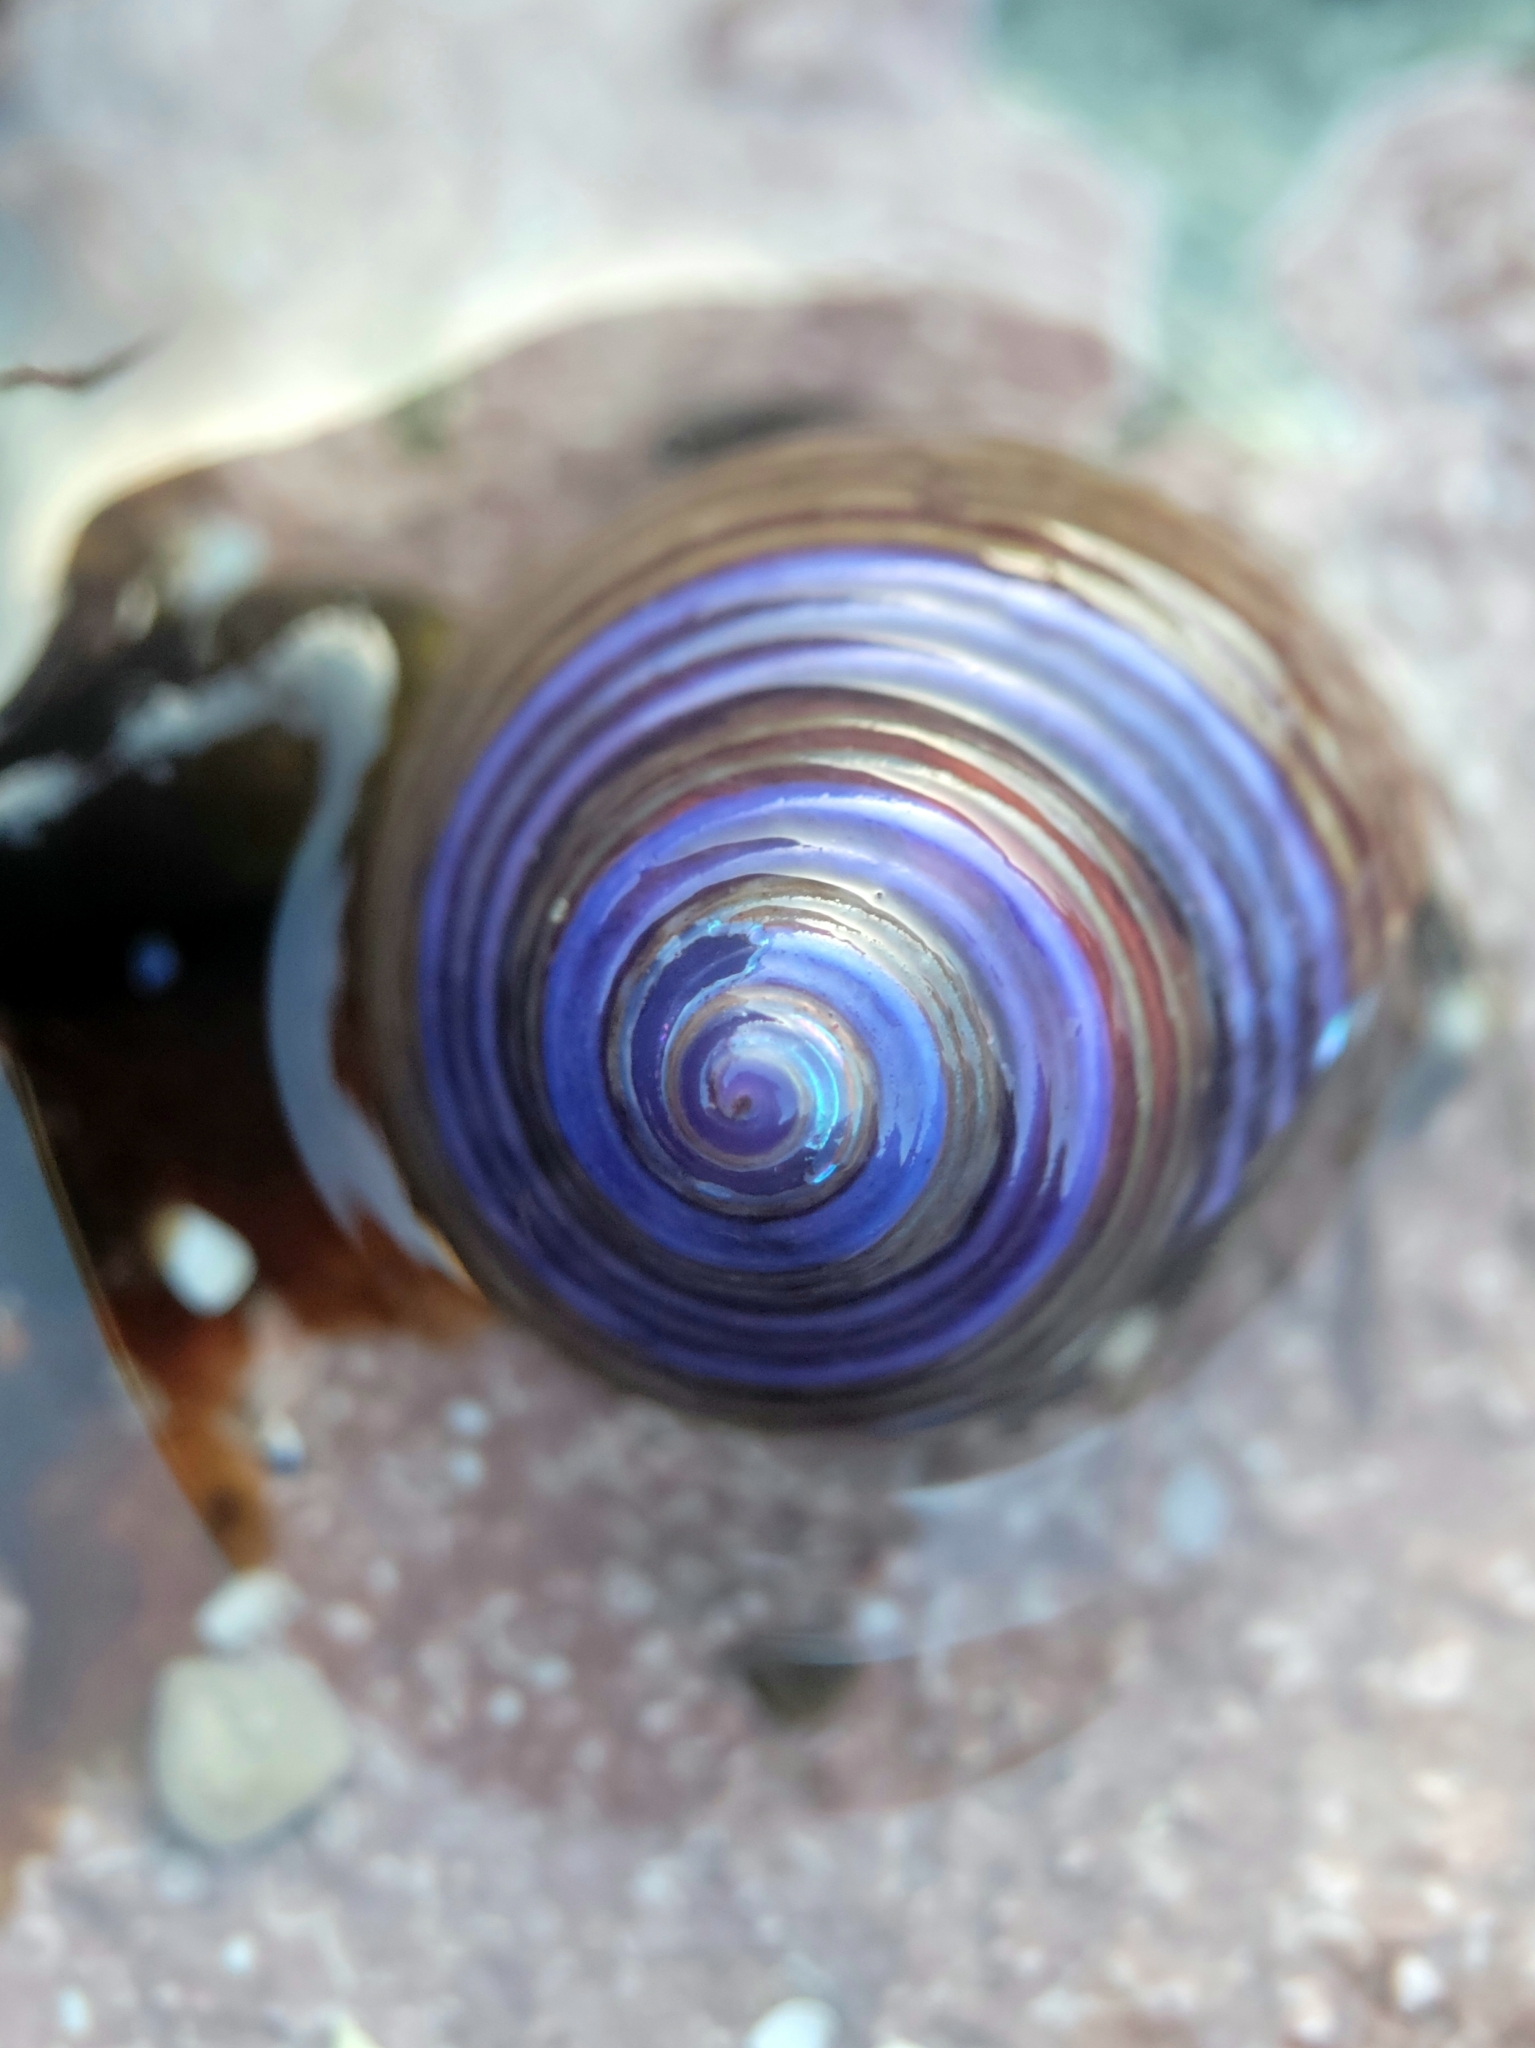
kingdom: Animalia
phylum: Mollusca
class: Gastropoda
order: Trochida
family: Calliostomatidae
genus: Calliostoma
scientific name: Calliostoma ligatum
